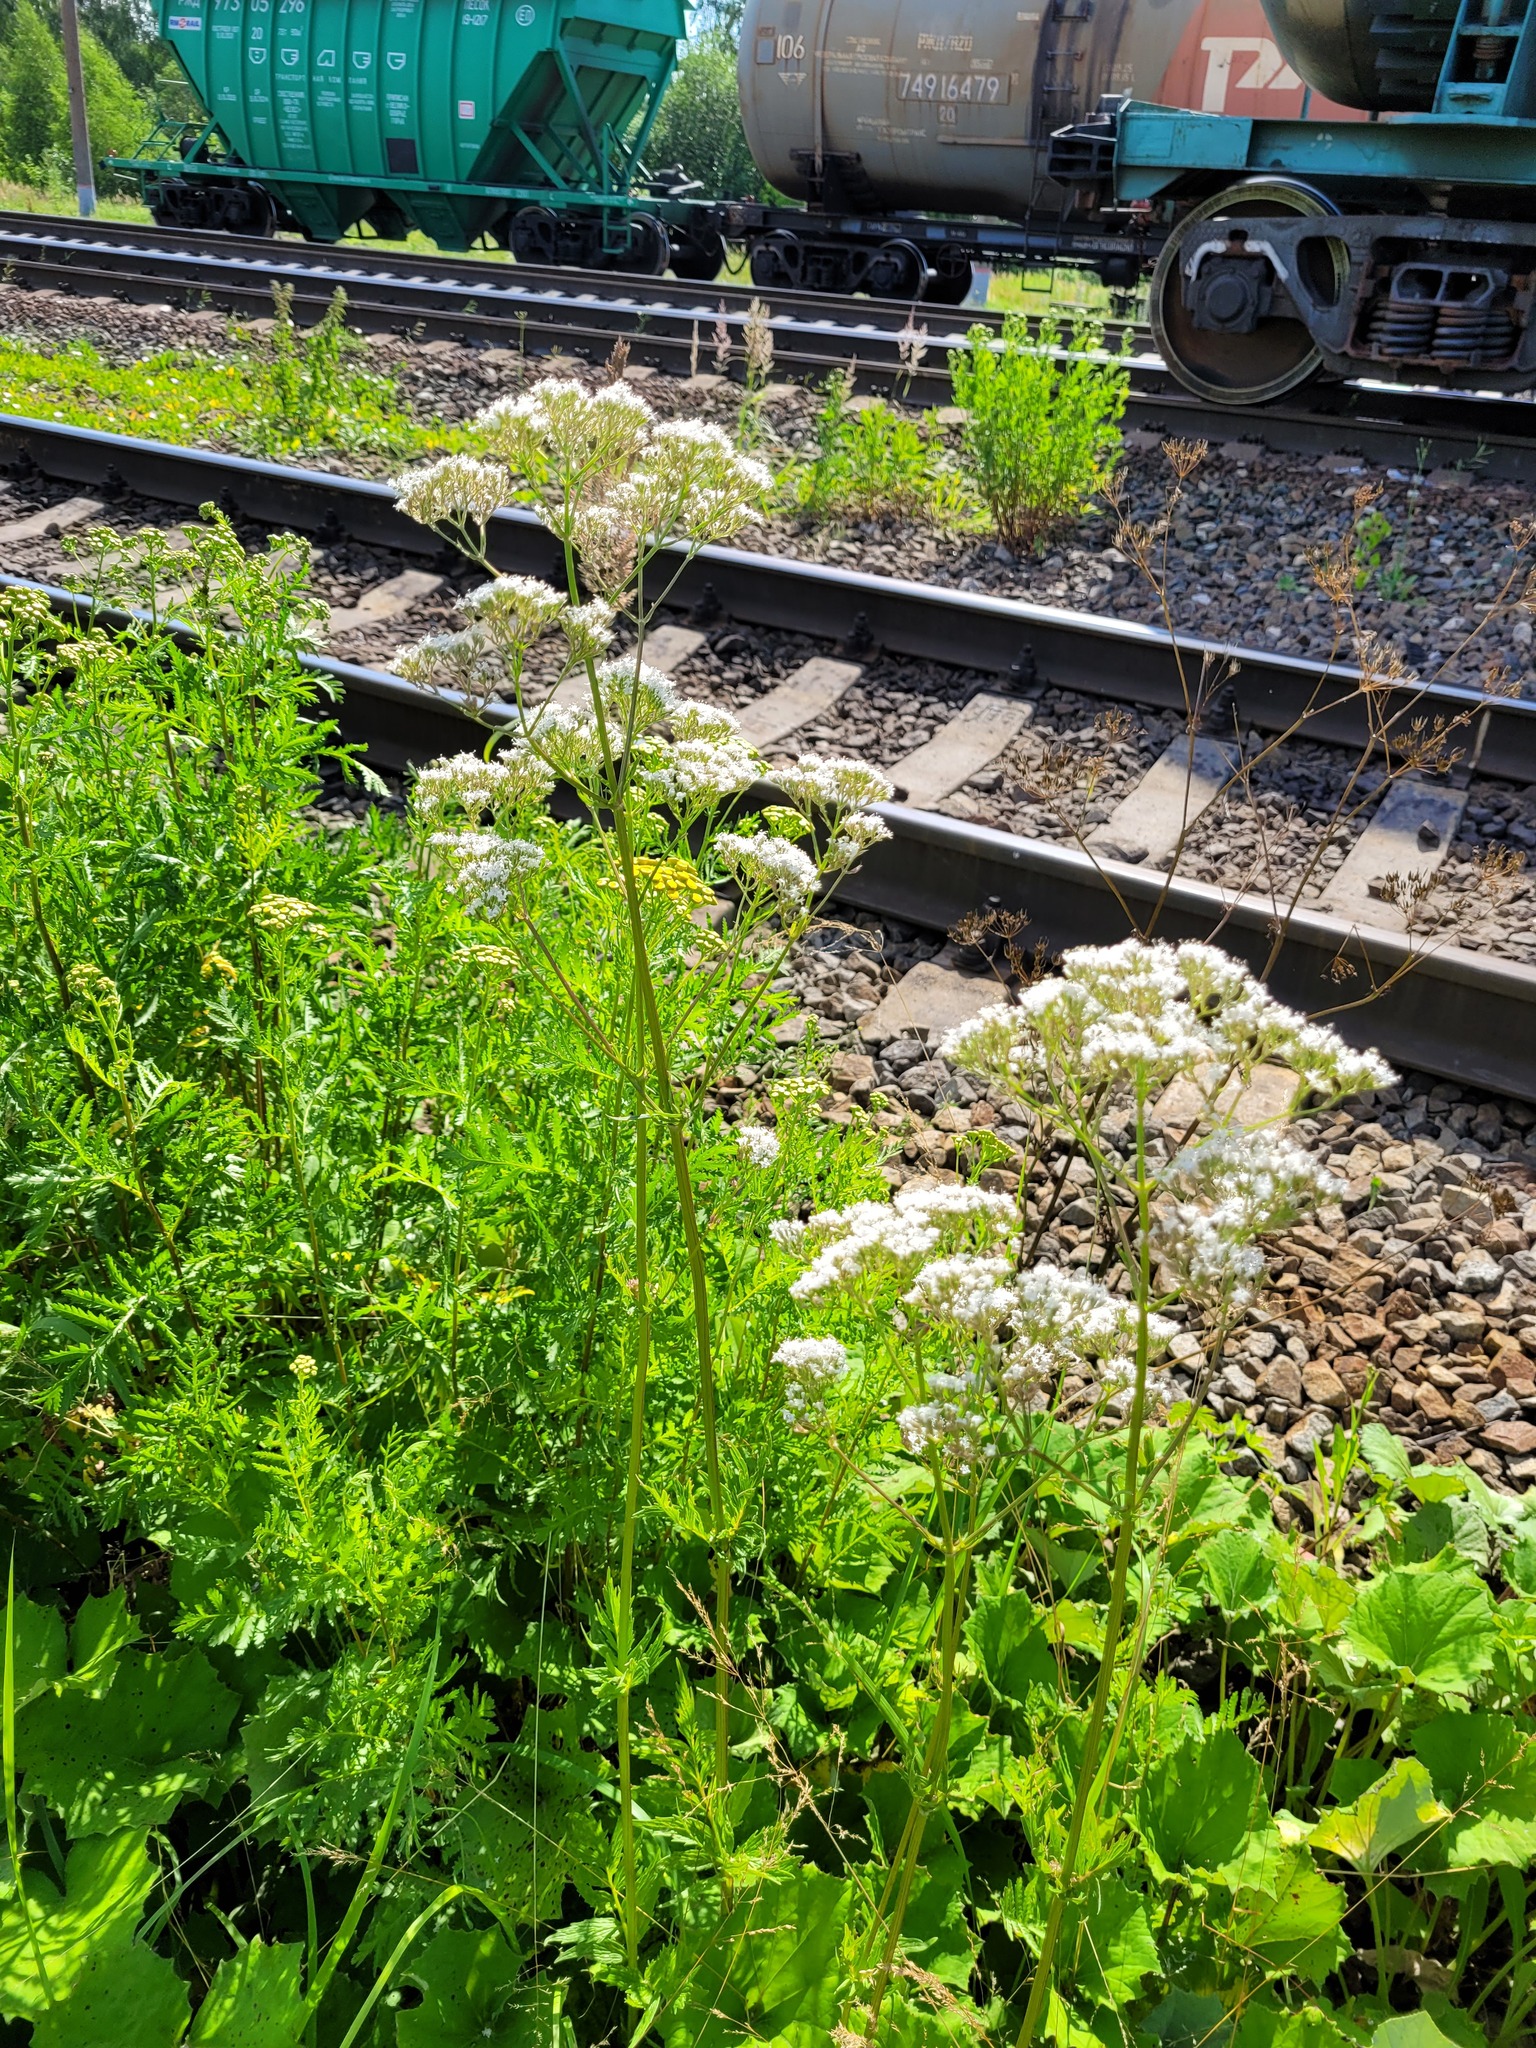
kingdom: Plantae
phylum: Tracheophyta
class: Magnoliopsida
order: Dipsacales
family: Caprifoliaceae
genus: Valeriana
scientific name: Valeriana officinalis
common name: Common valerian
